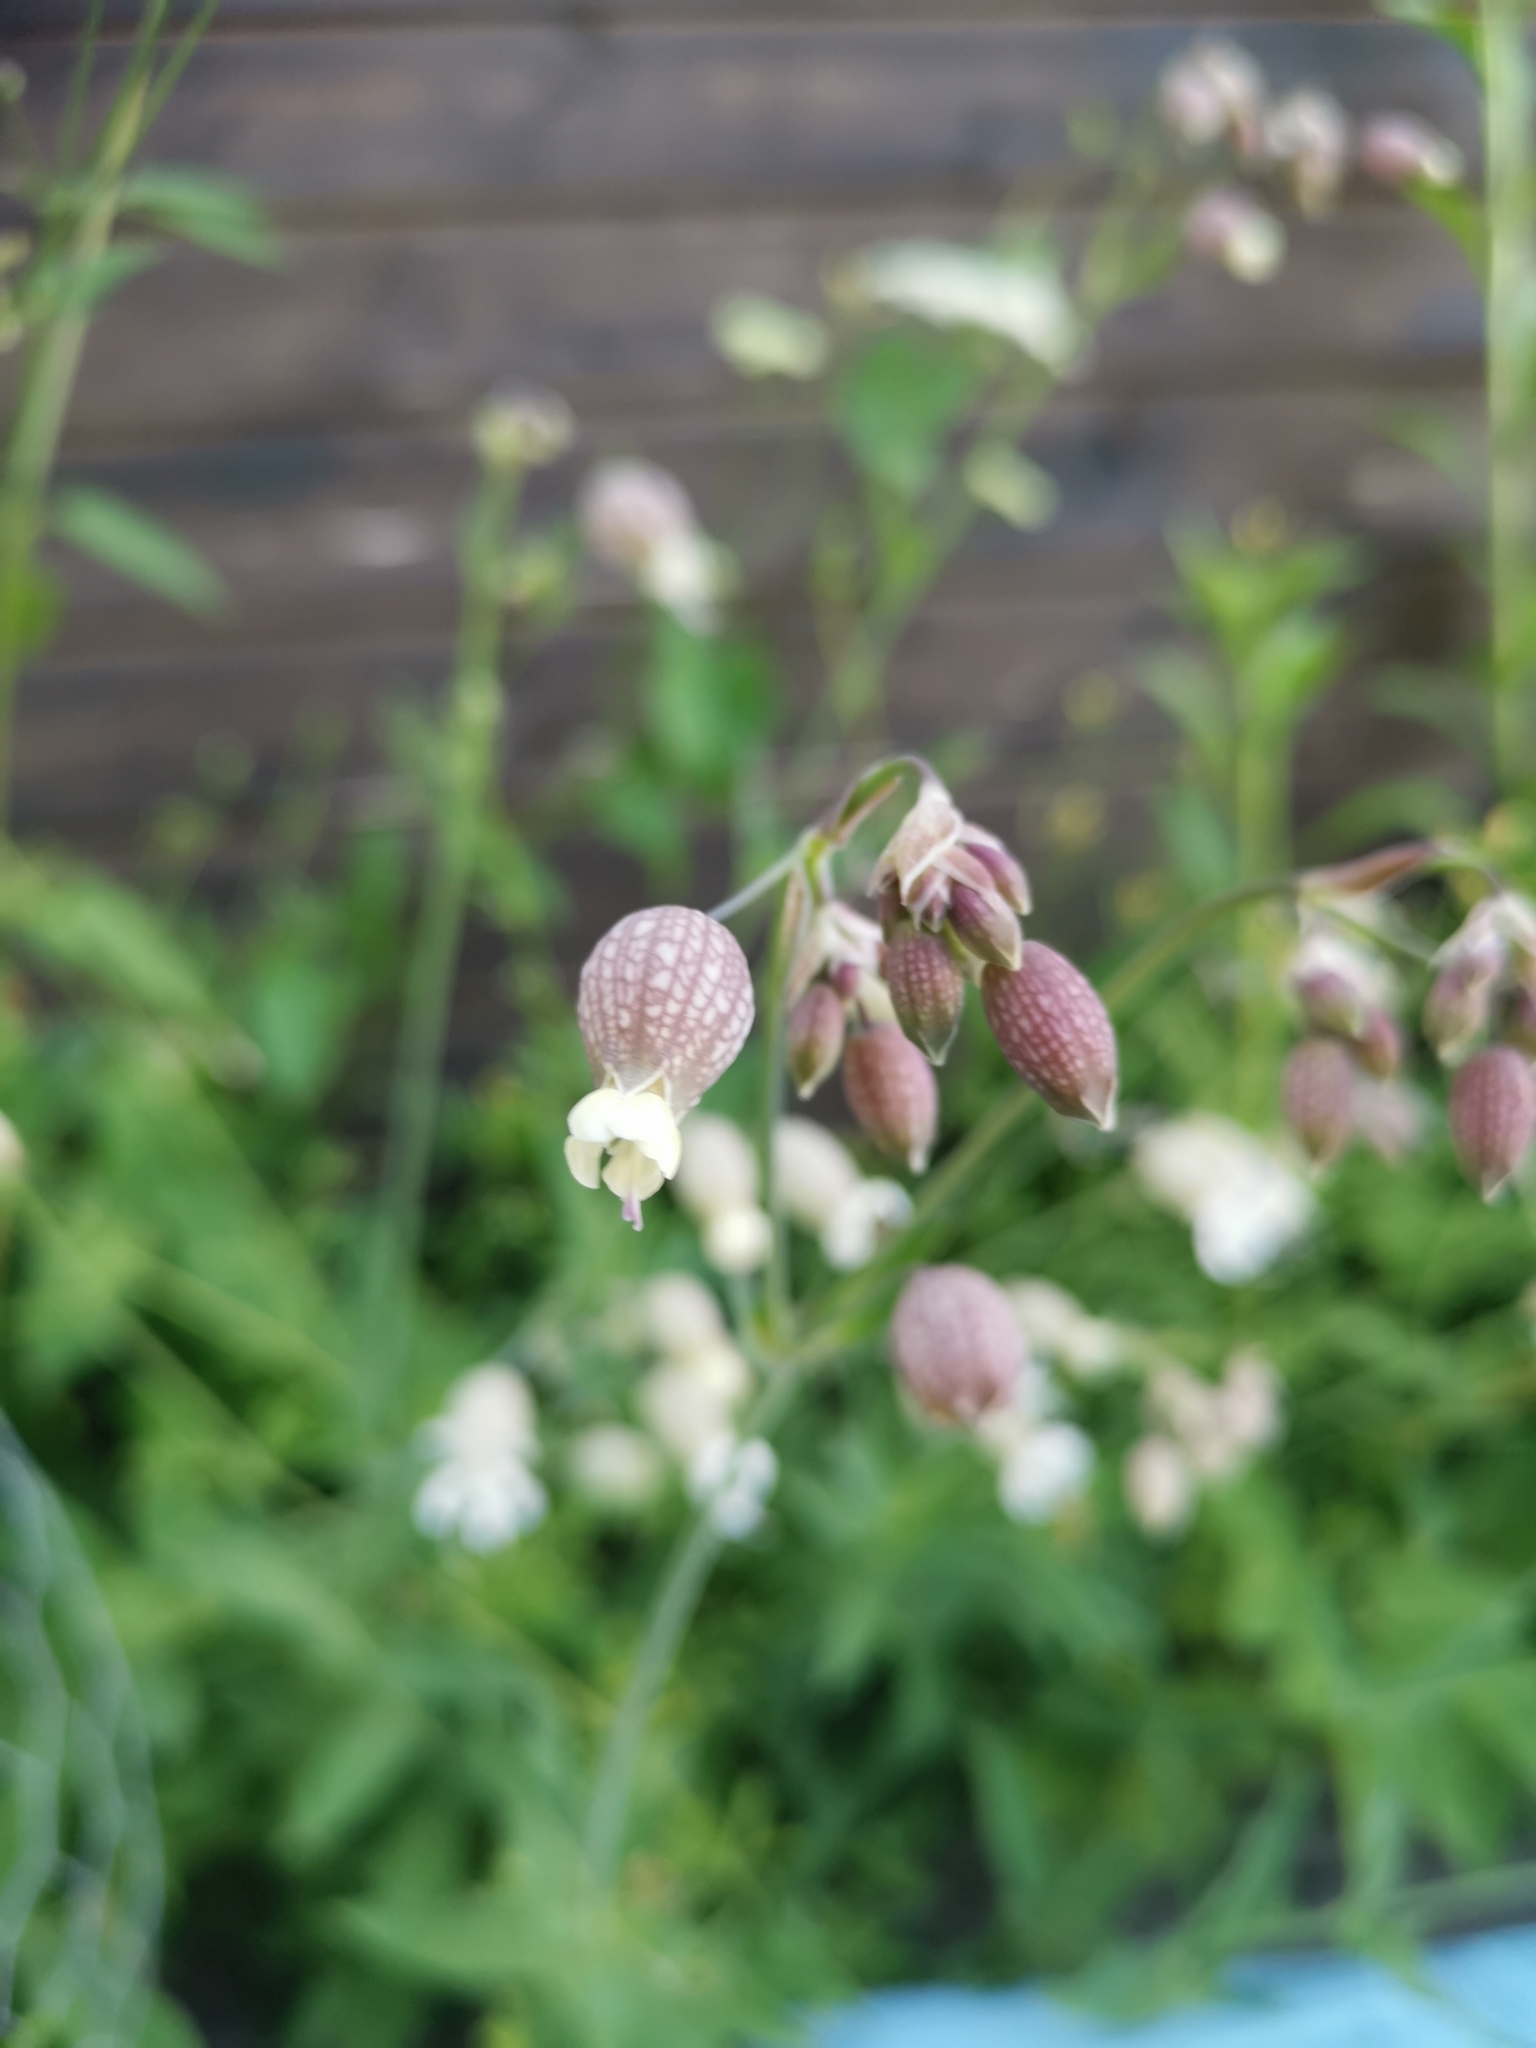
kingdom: Plantae
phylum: Tracheophyta
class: Magnoliopsida
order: Caryophyllales
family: Caryophyllaceae
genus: Silene
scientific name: Silene vulgaris
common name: Bladder campion
